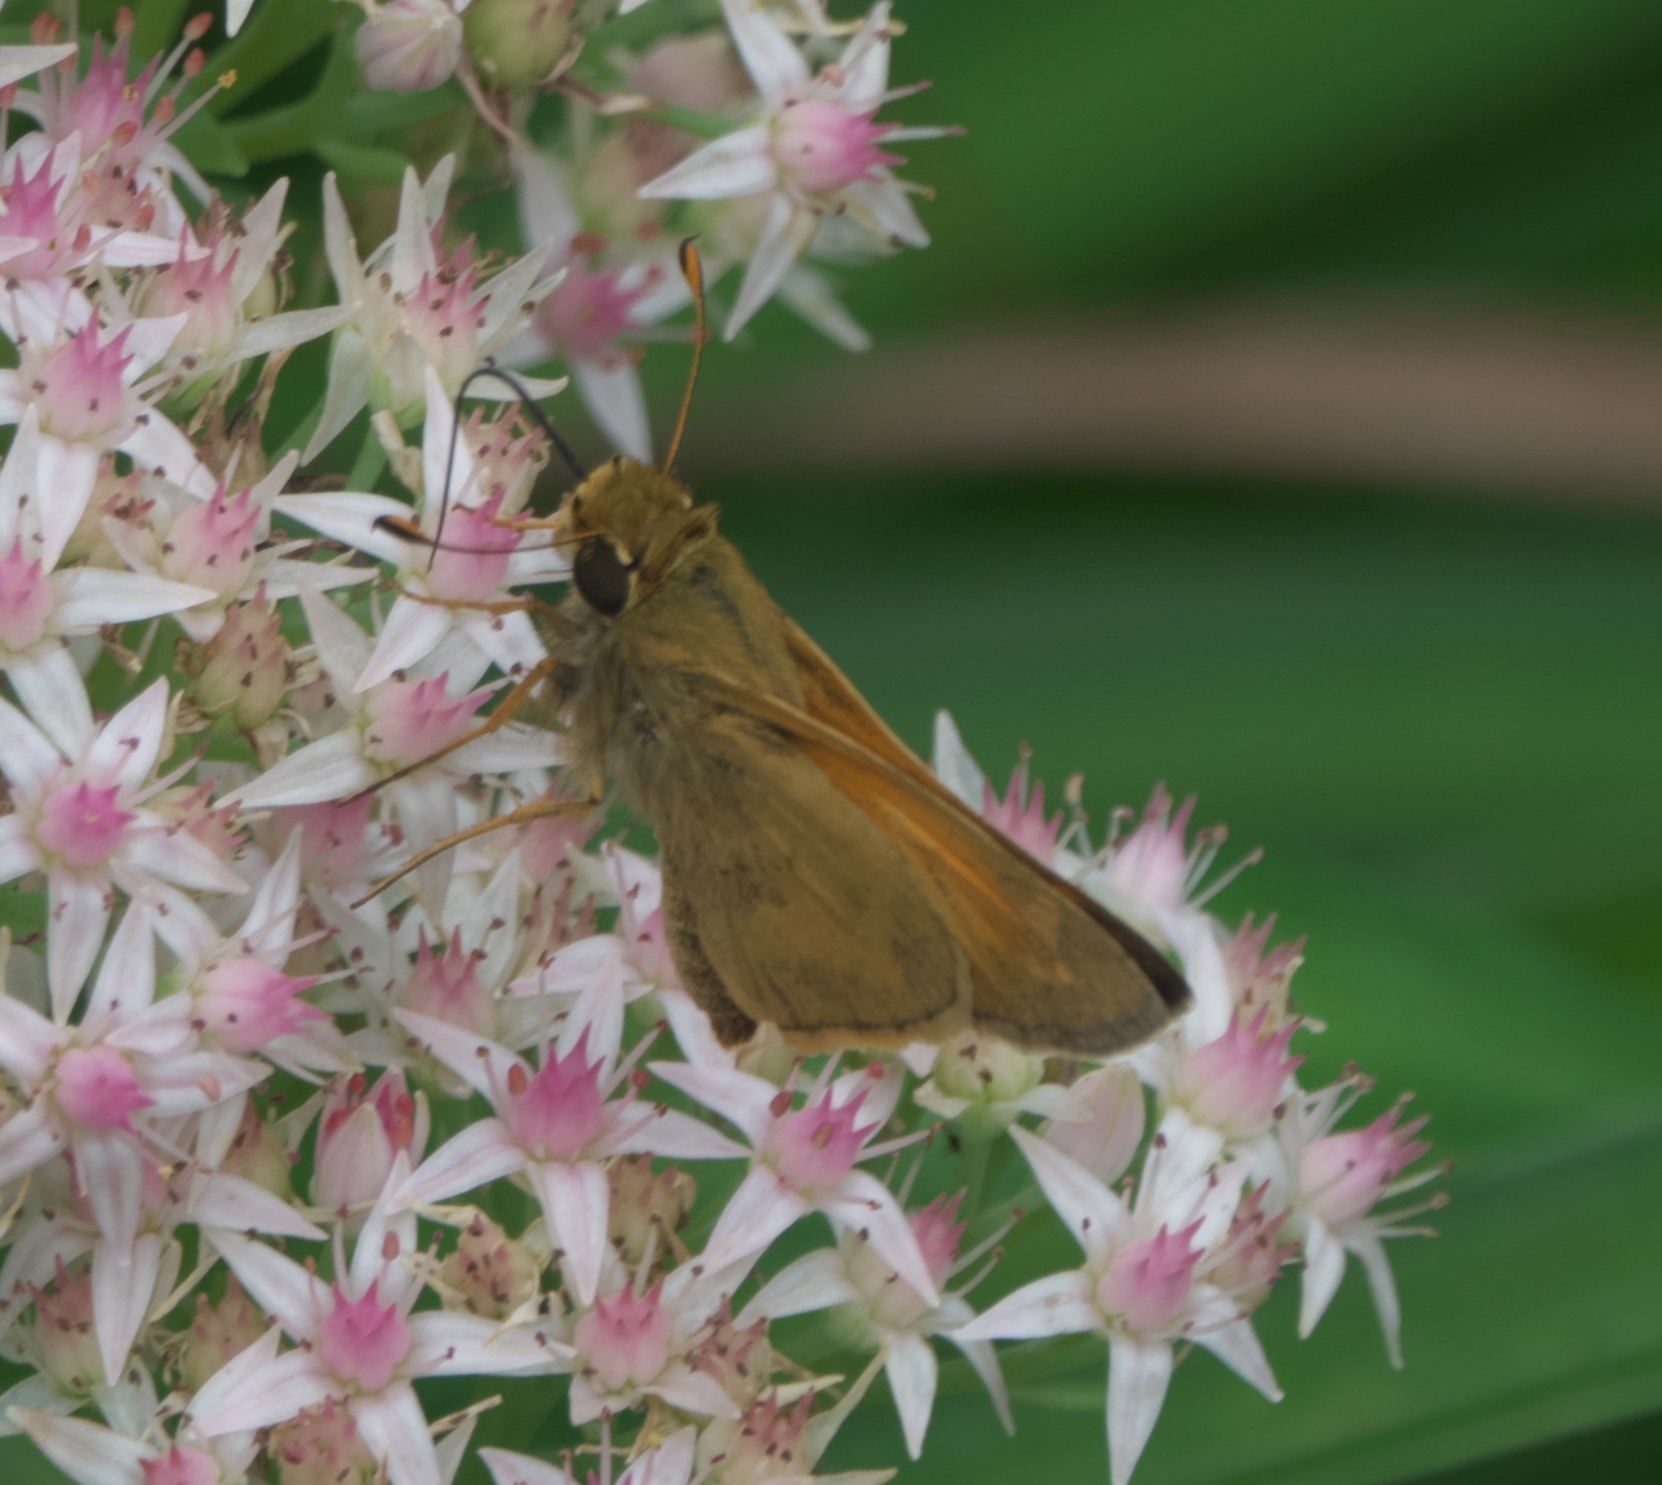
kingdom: Animalia
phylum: Arthropoda
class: Insecta
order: Lepidoptera
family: Hesperiidae
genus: Atalopedes
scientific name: Atalopedes
